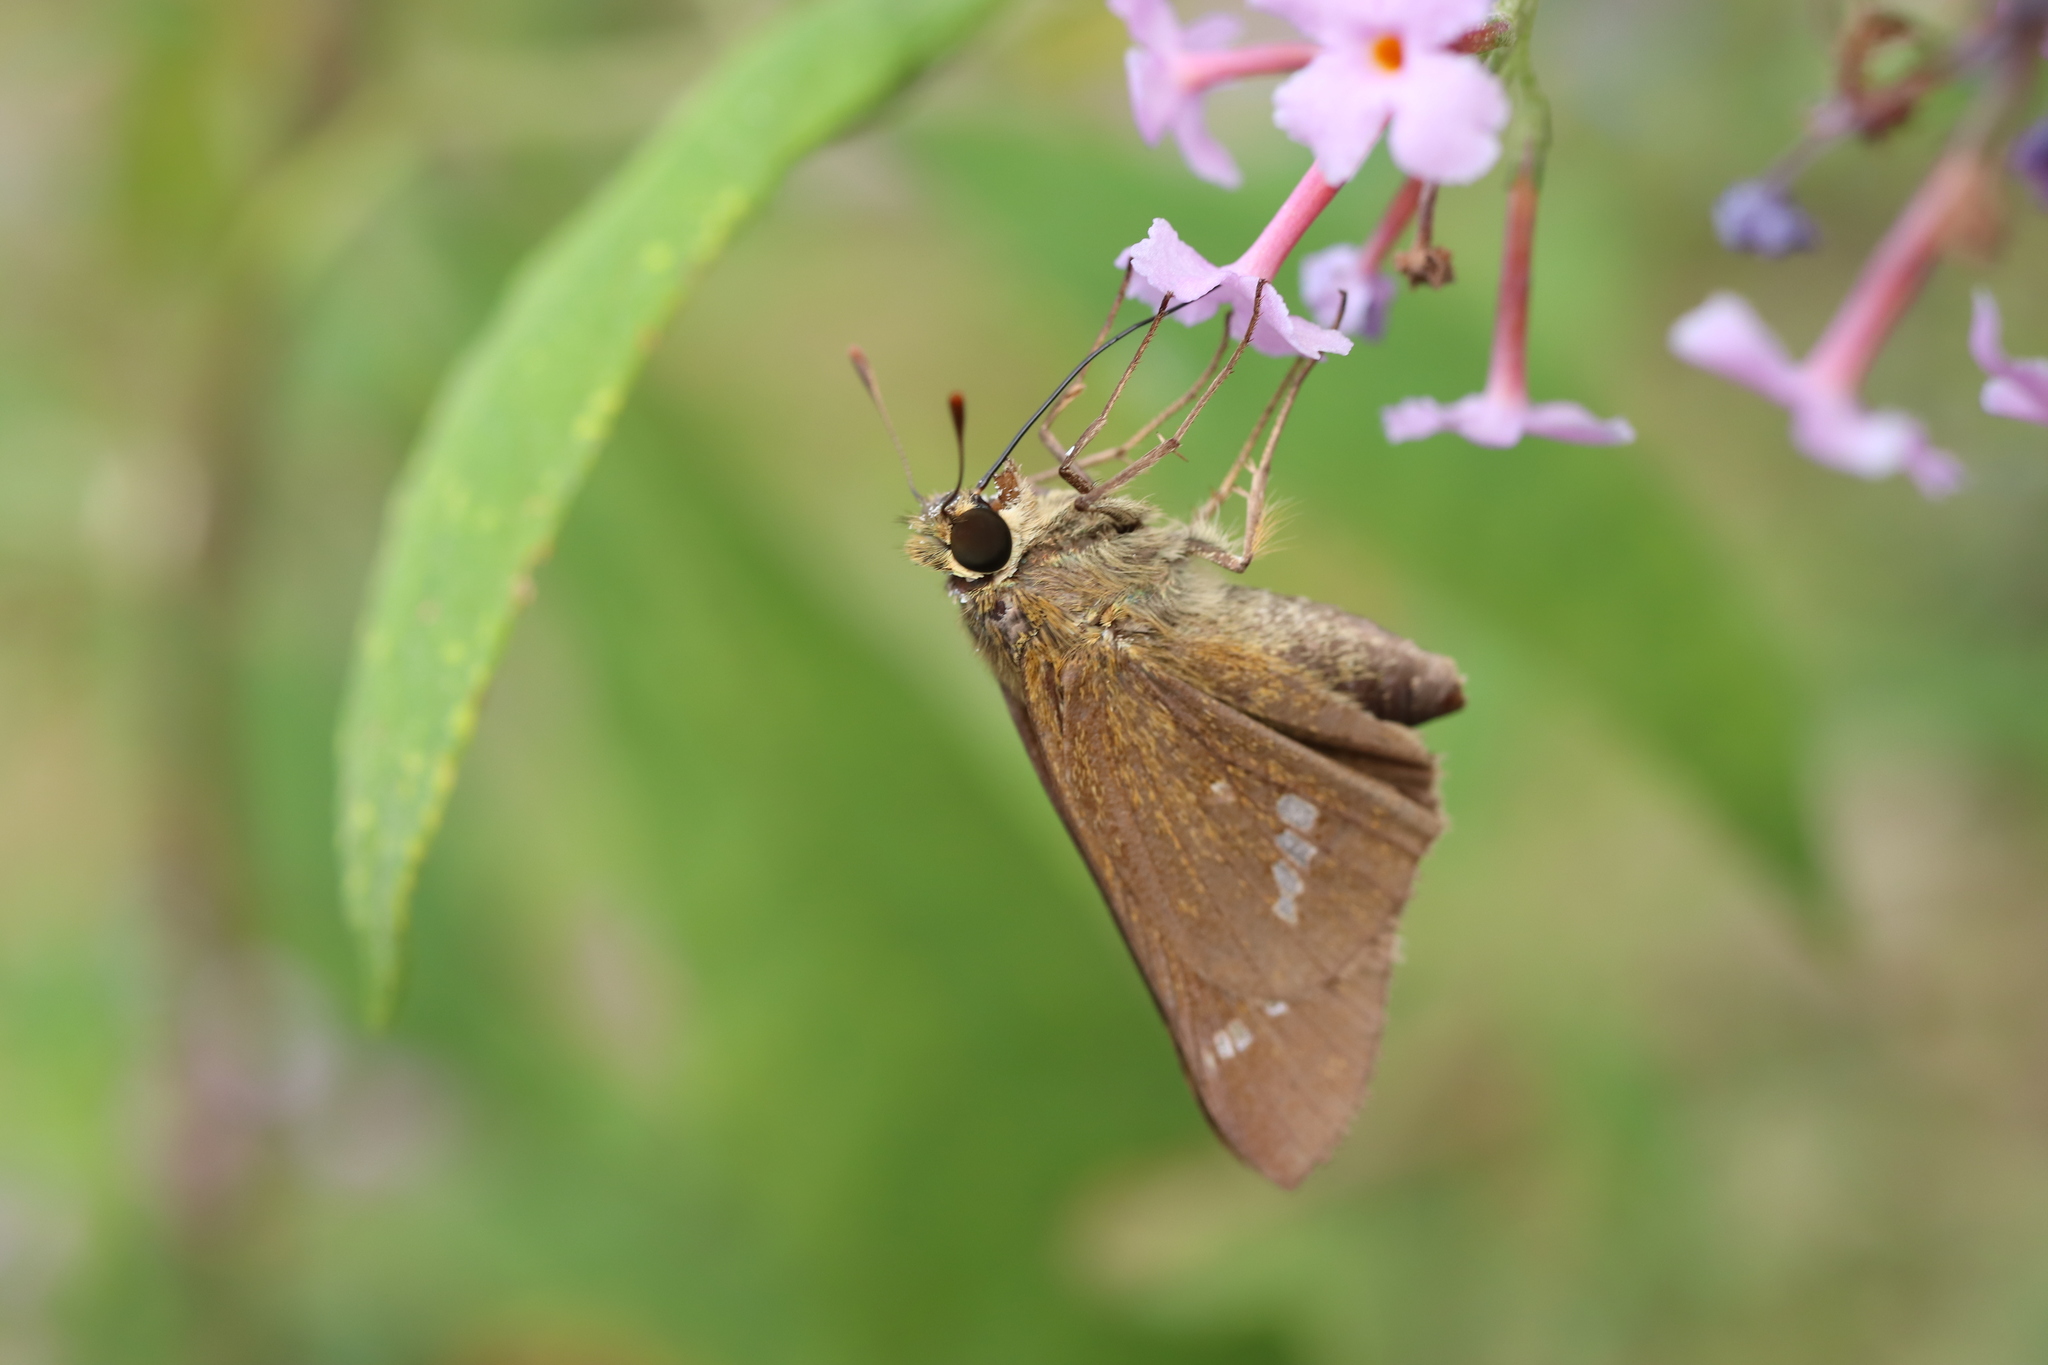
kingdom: Animalia
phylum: Arthropoda
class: Insecta
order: Lepidoptera
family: Hesperiidae
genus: Parnara
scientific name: Parnara guttatus
